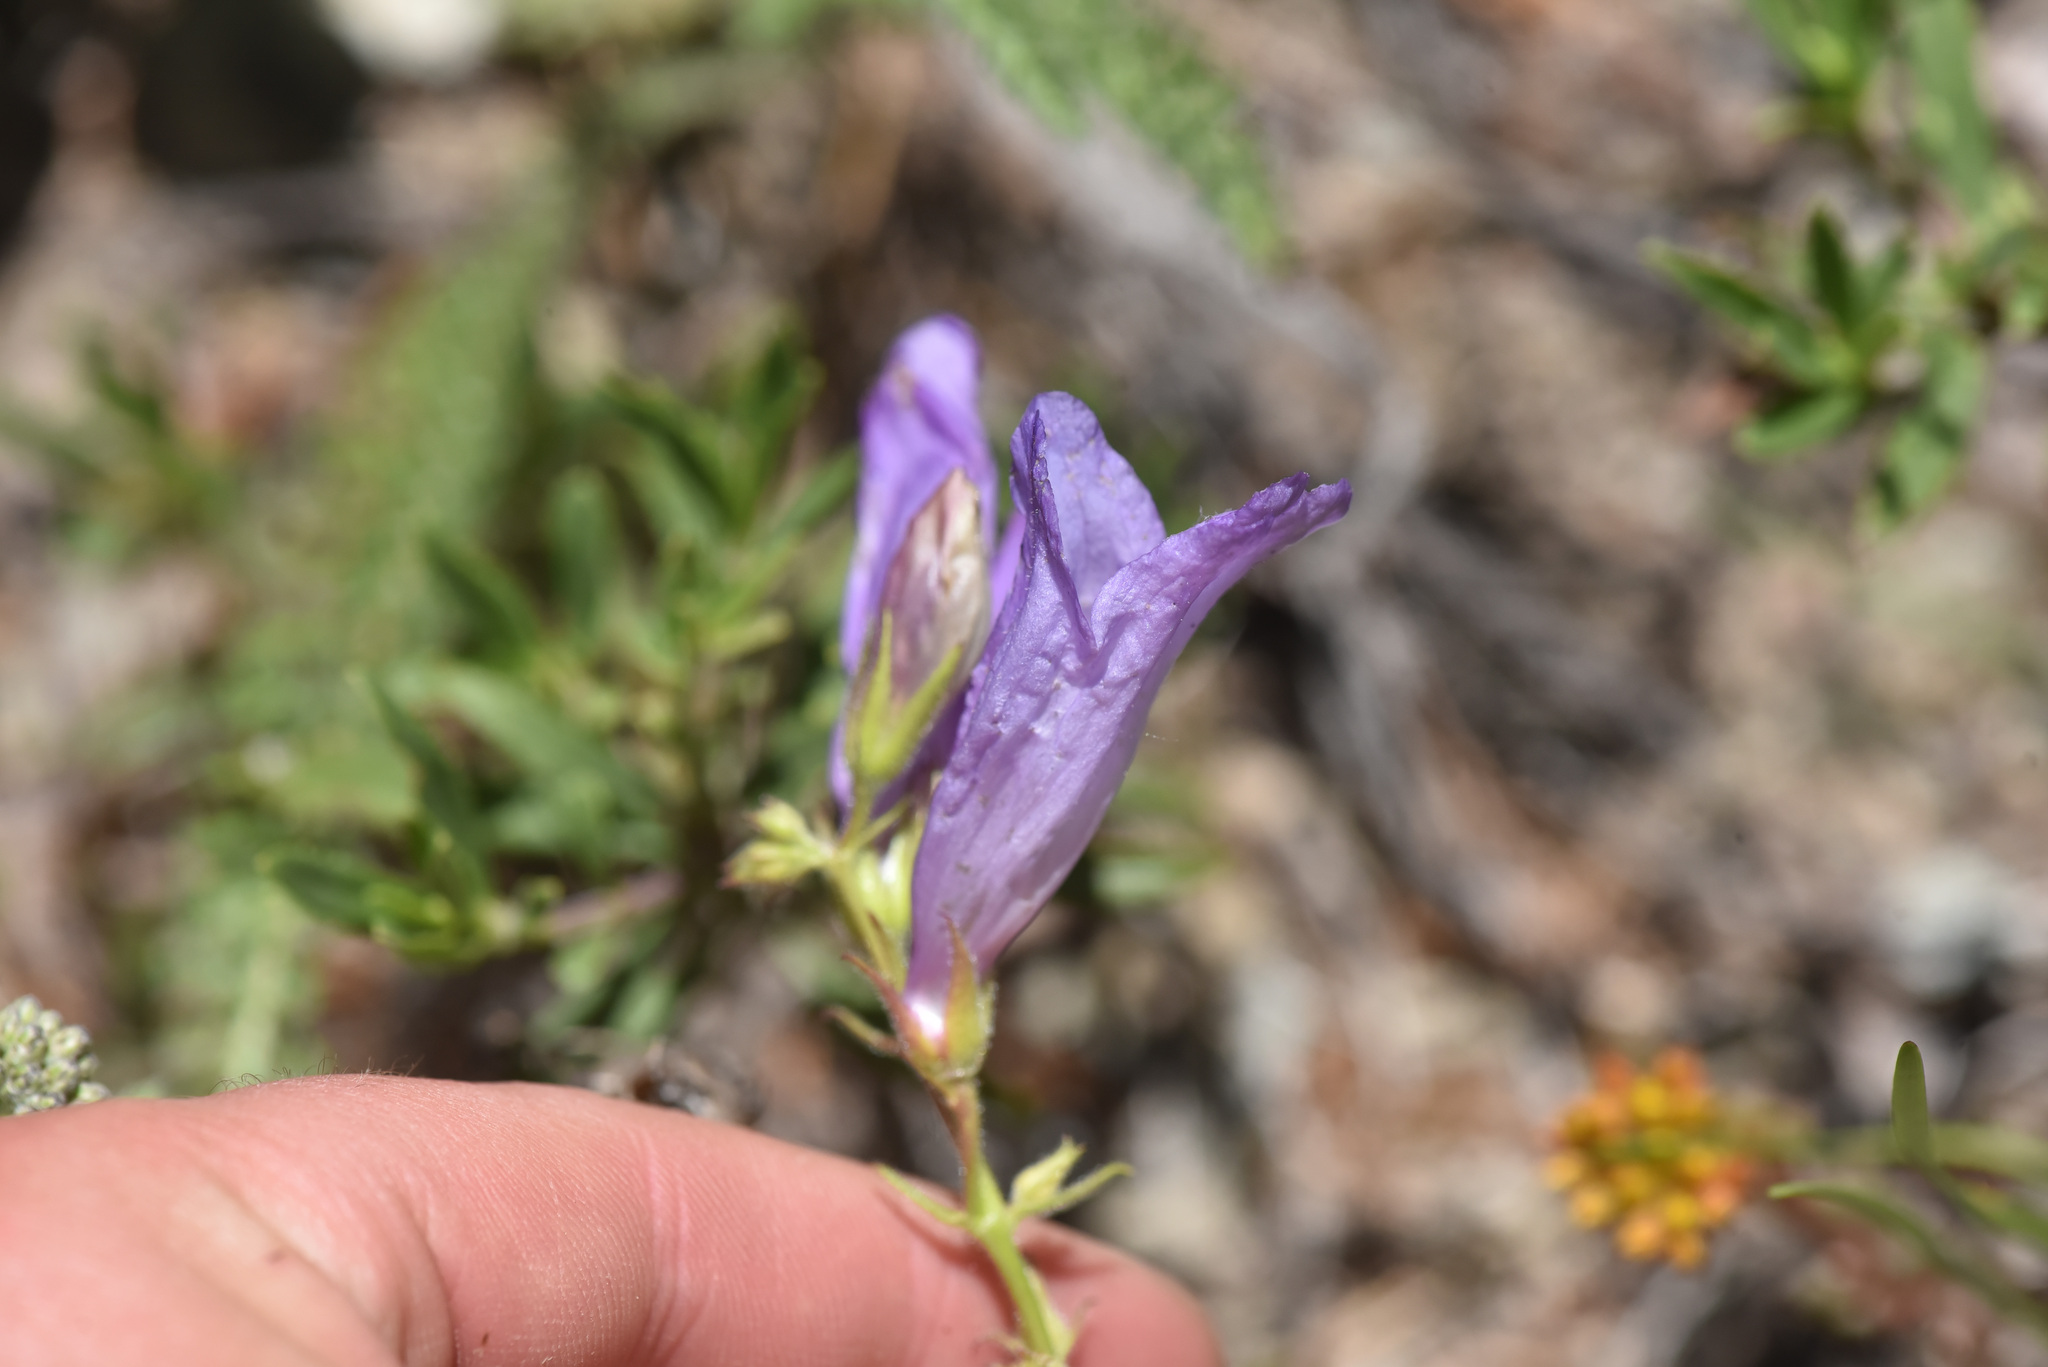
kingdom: Plantae
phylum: Tracheophyta
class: Magnoliopsida
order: Lamiales
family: Plantaginaceae
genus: Penstemon
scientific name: Penstemon fruticosus
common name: Bush penstemon
